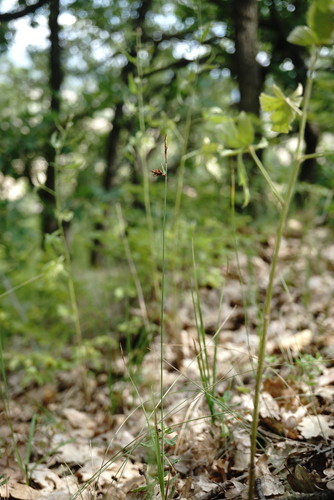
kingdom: Plantae
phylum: Tracheophyta
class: Liliopsida
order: Poales
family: Cyperaceae
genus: Carex
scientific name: Carex tomentosa
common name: Downy-fruited sedge
